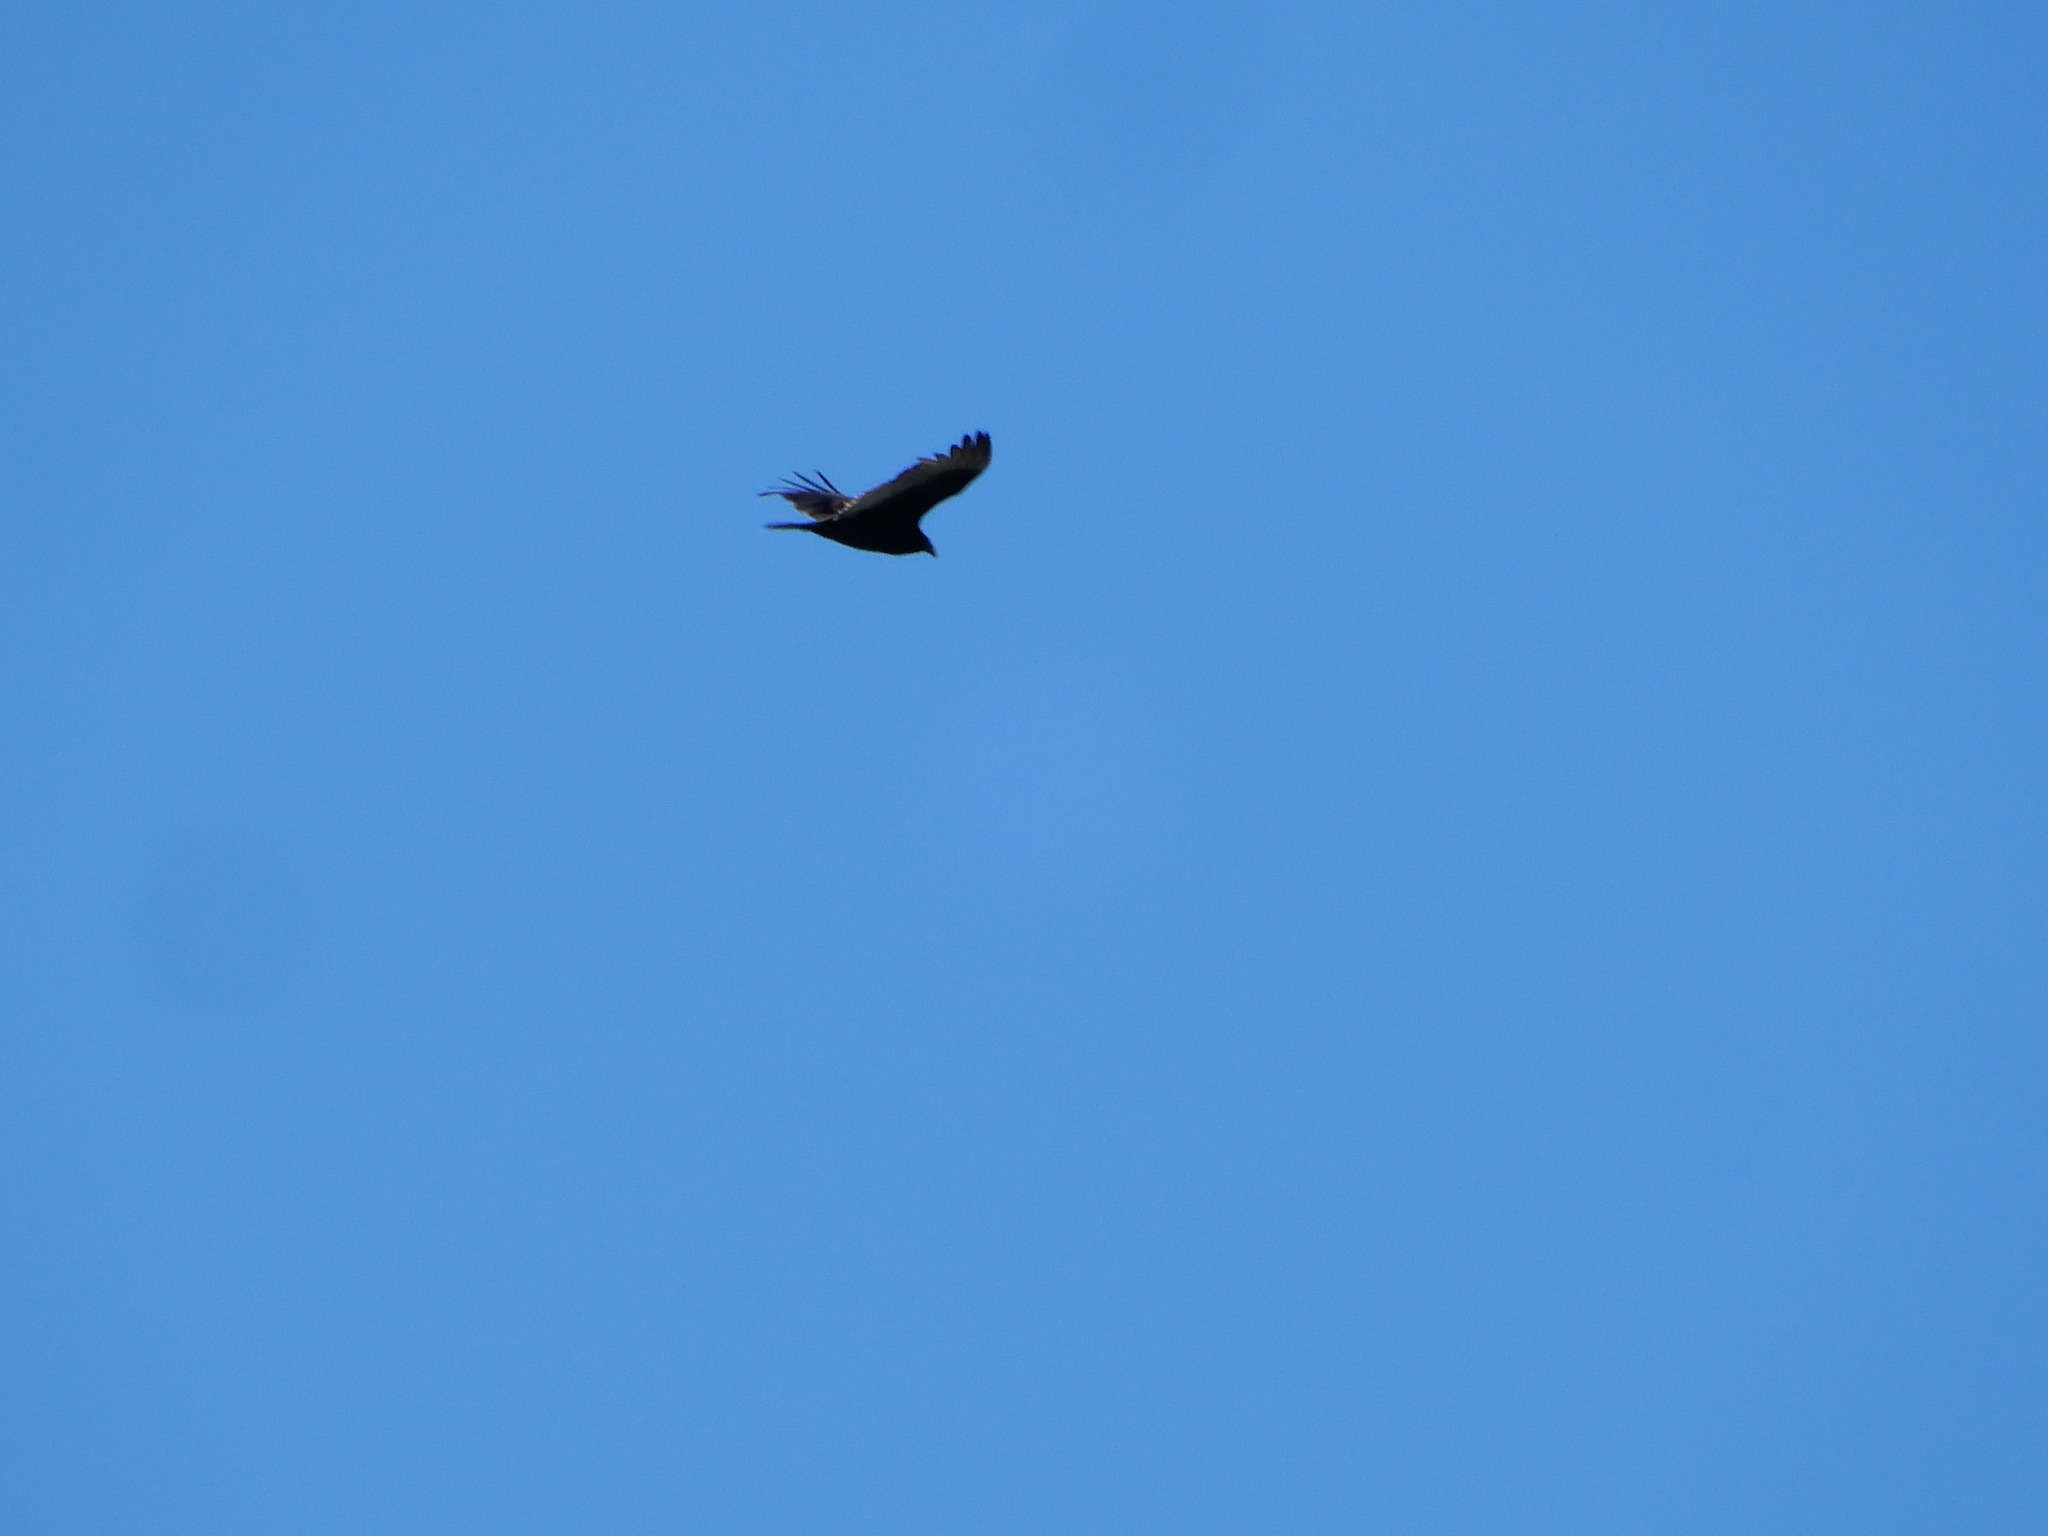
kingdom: Animalia
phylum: Chordata
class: Aves
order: Accipitriformes
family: Cathartidae
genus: Cathartes
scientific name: Cathartes aura
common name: Turkey vulture
